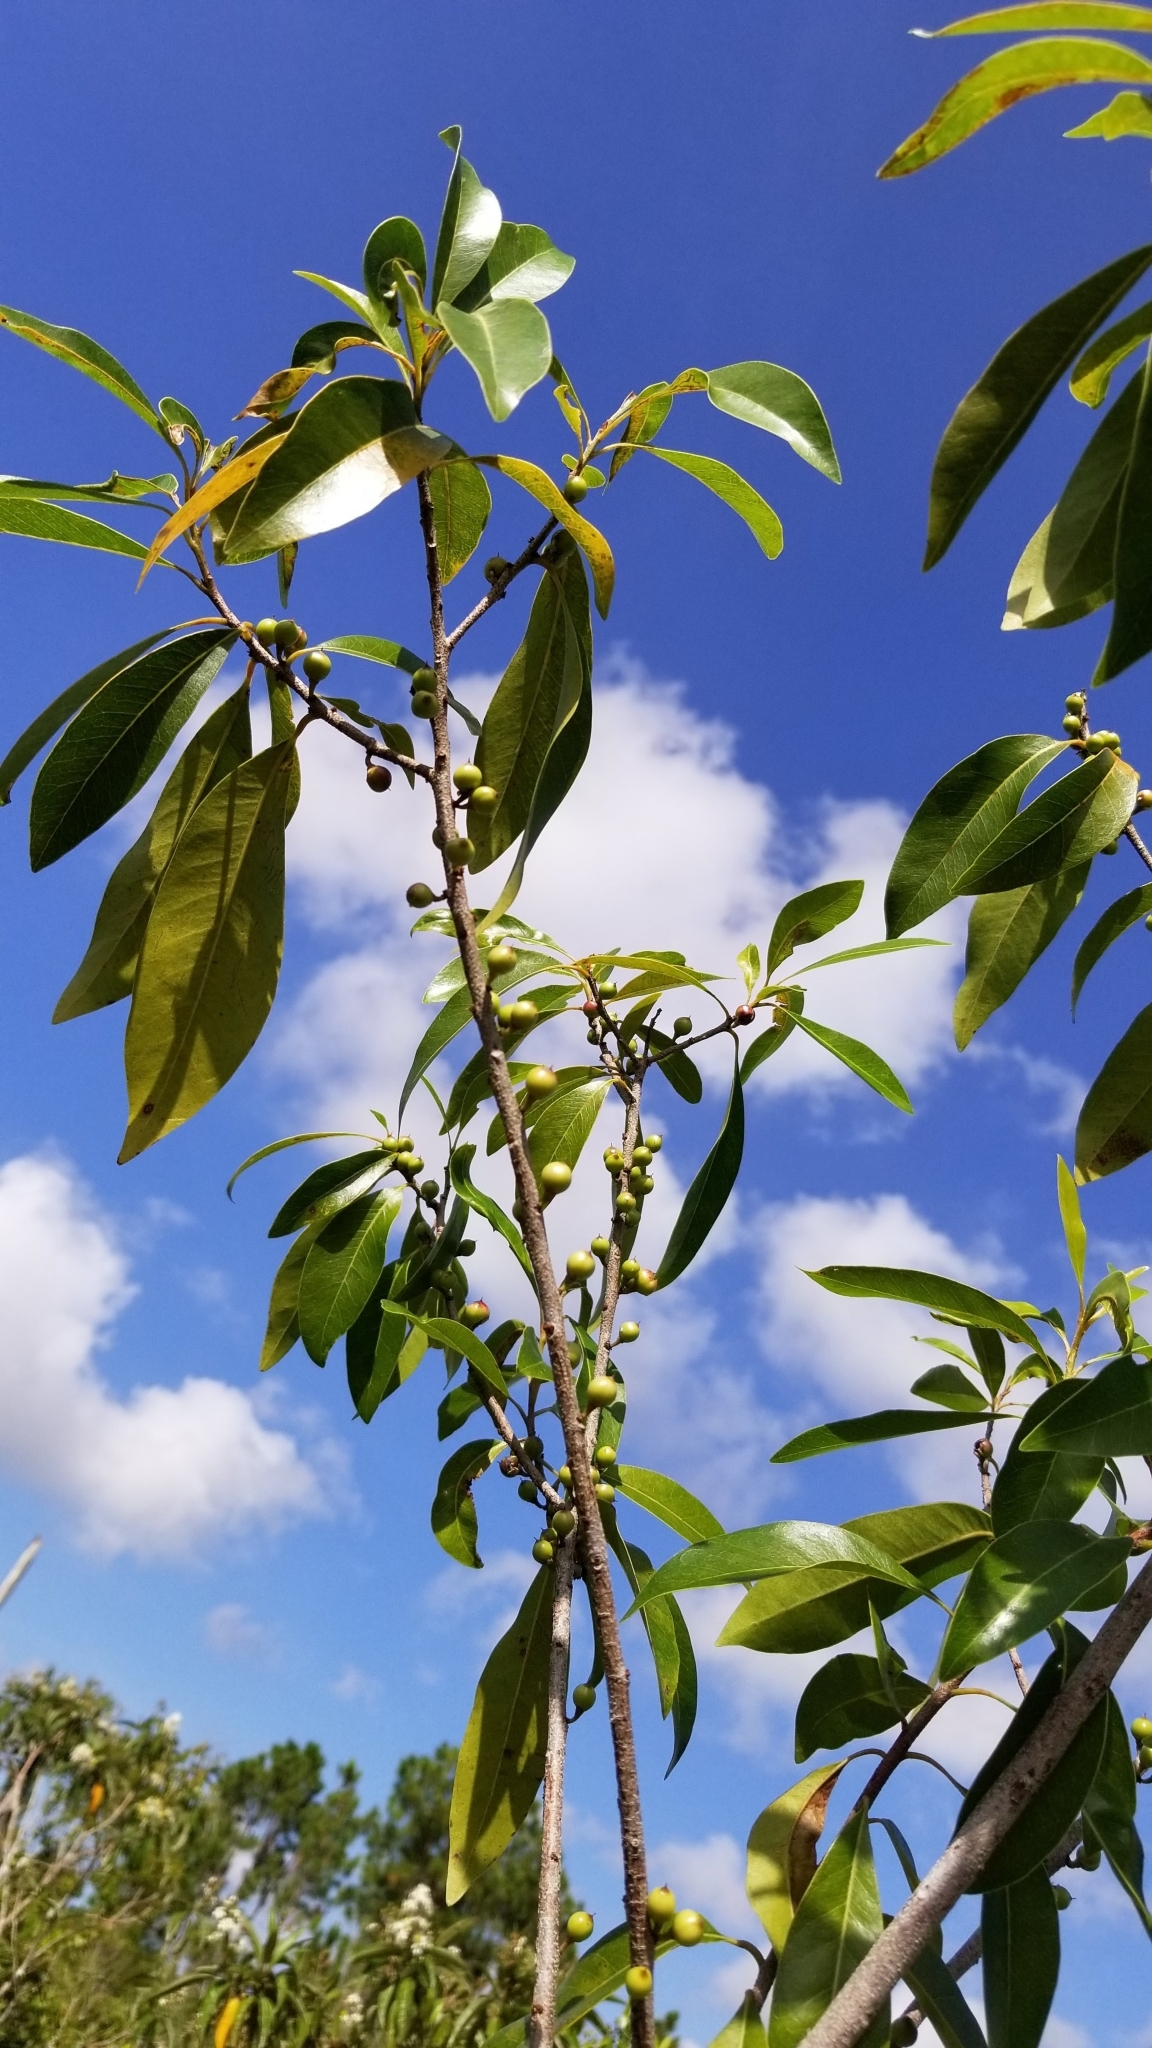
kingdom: Plantae
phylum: Tracheophyta
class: Magnoliopsida
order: Ericales
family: Sapotaceae
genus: Sideroxylon
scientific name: Sideroxylon salicifolium
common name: White bully
